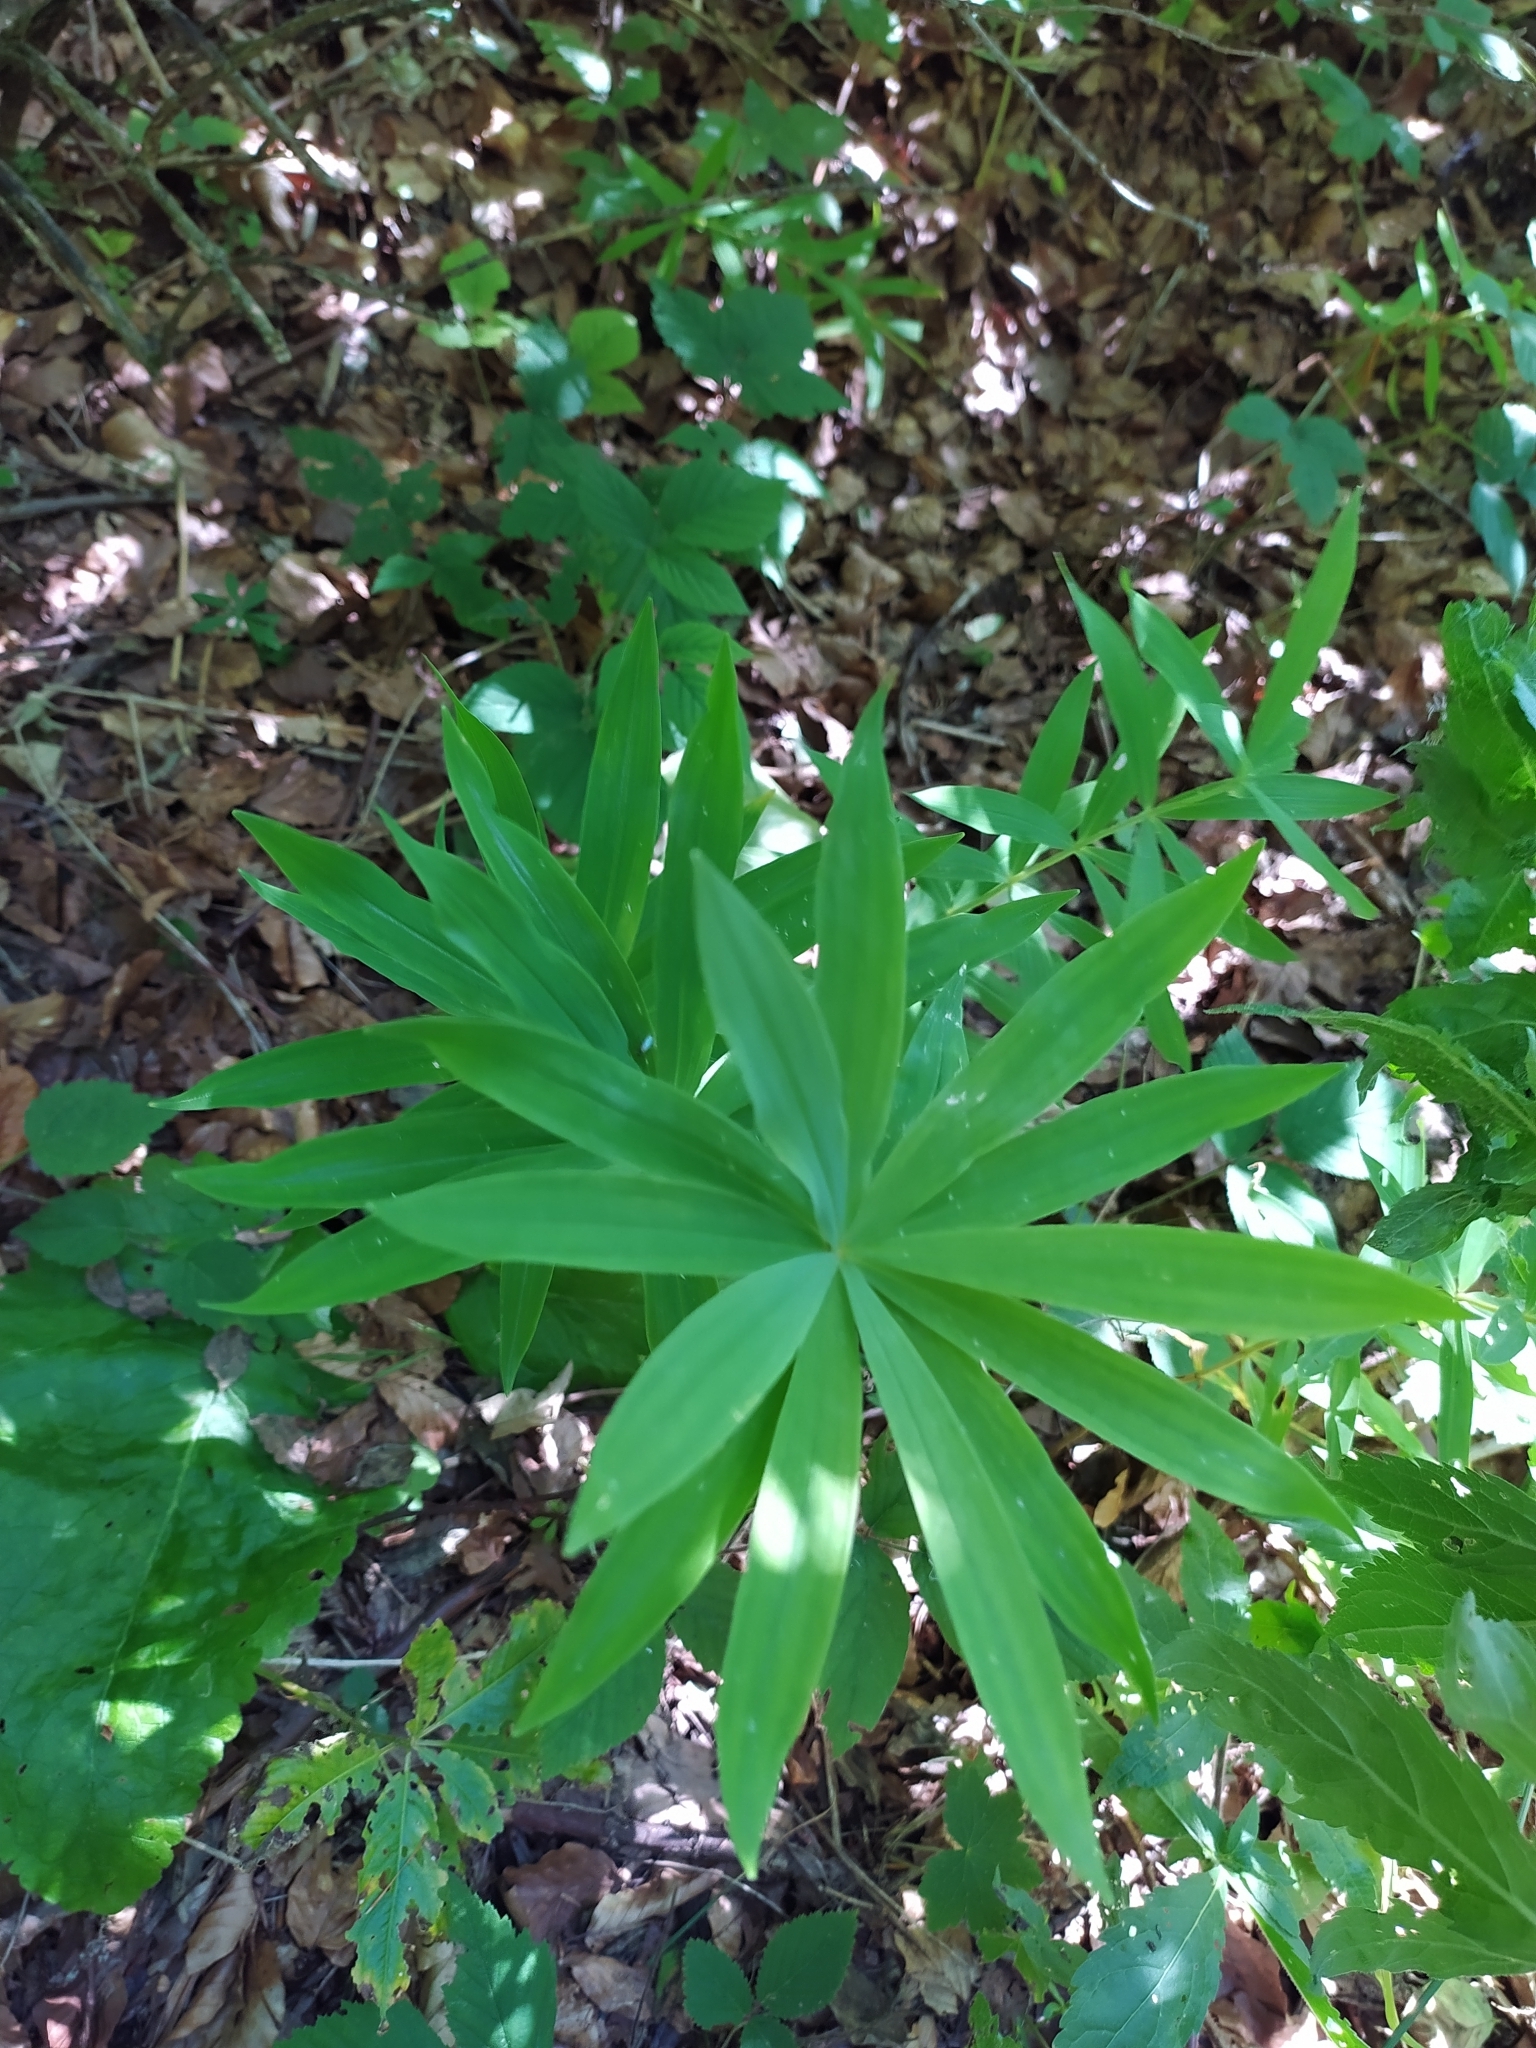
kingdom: Plantae
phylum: Tracheophyta
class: Liliopsida
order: Asparagales
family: Asparagaceae
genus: Polygonatum
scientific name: Polygonatum verticillatum
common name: Whorled solomon's-seal
